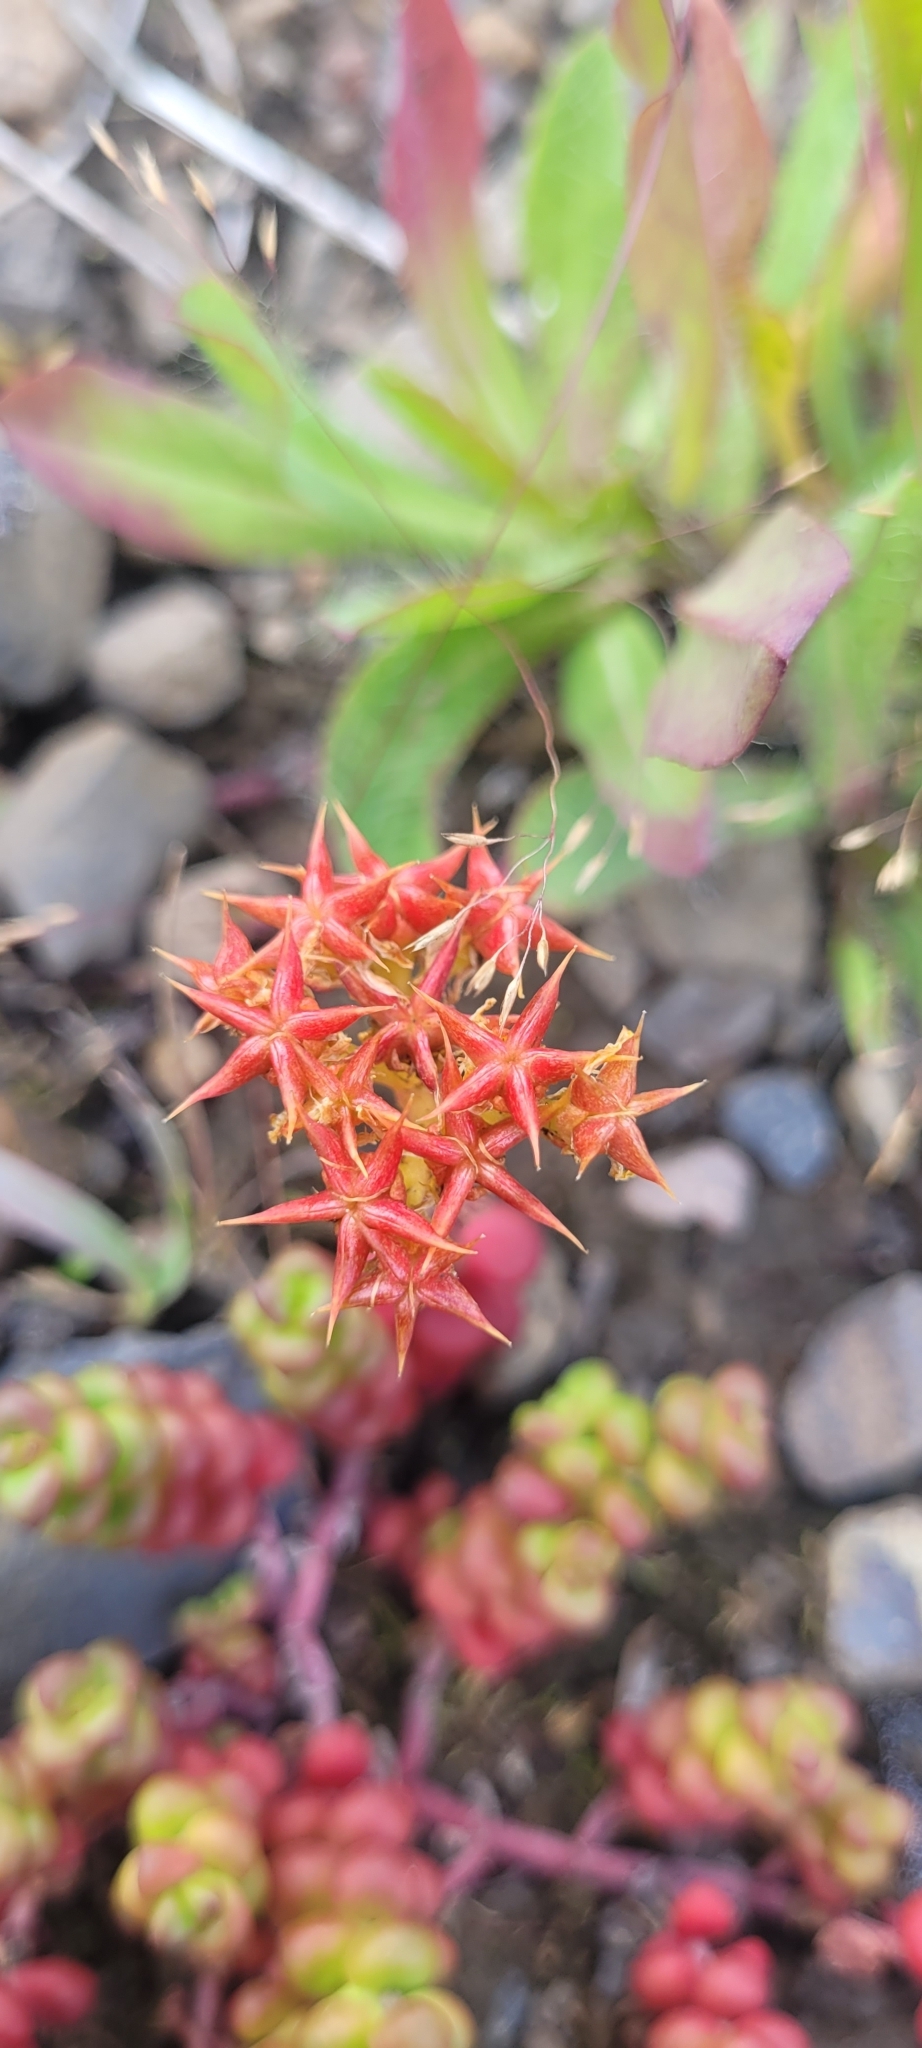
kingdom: Plantae
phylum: Tracheophyta
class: Magnoliopsida
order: Saxifragales
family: Crassulaceae
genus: Sedum
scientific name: Sedum divergens
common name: Cascade stonecrop
